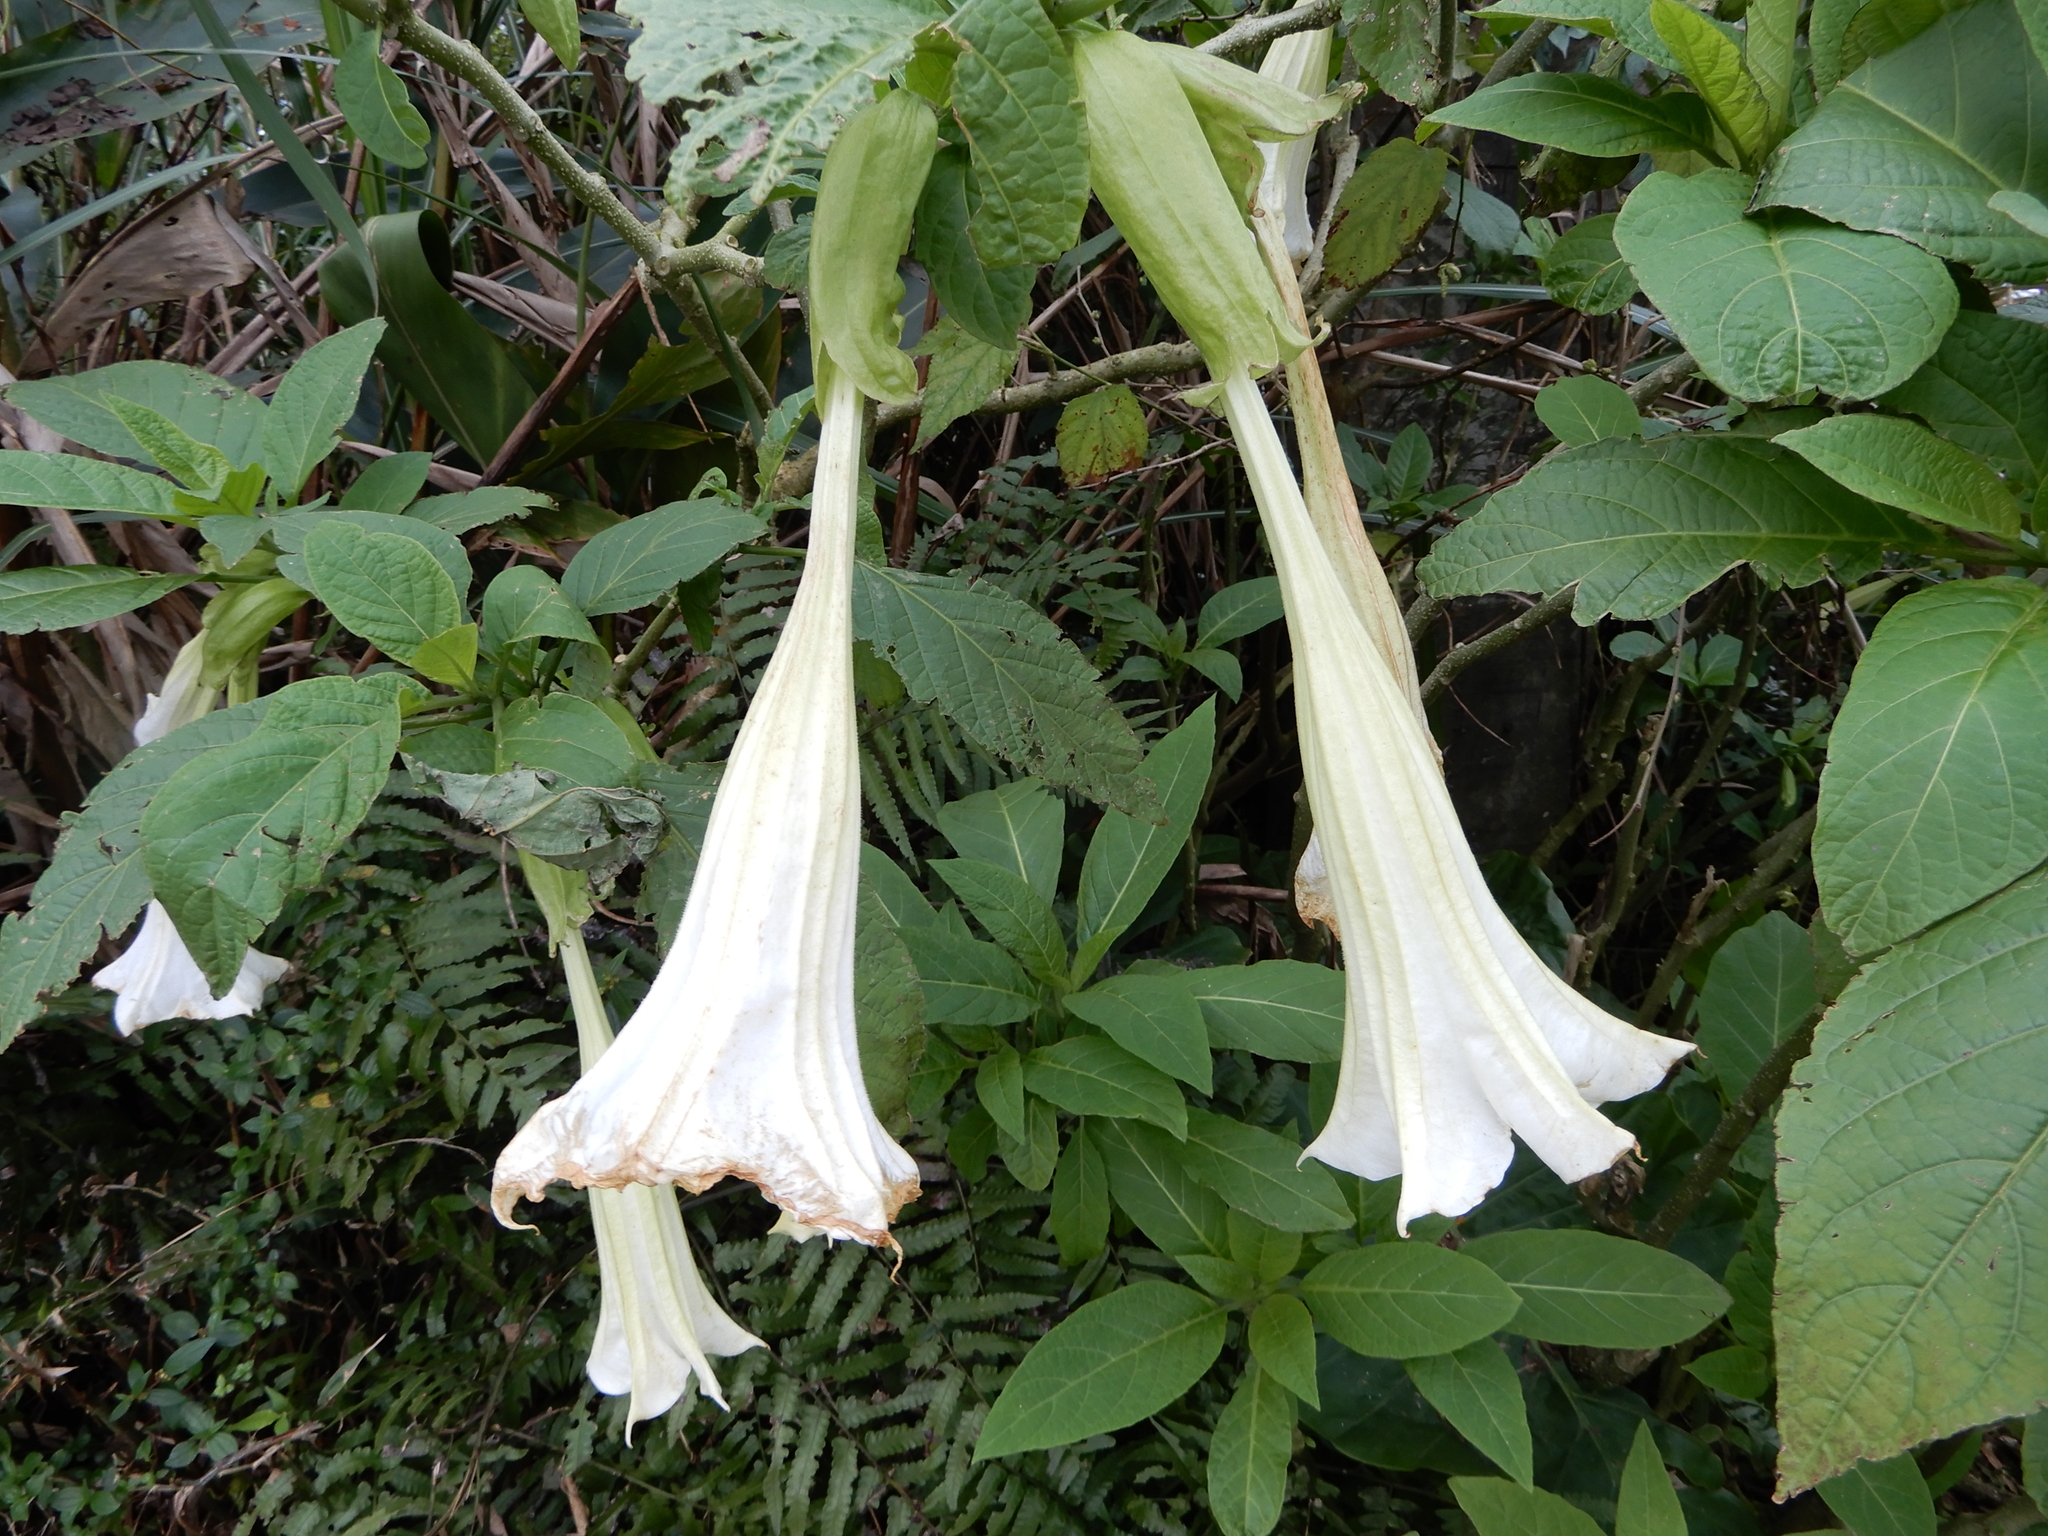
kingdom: Plantae
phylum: Tracheophyta
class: Magnoliopsida
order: Solanales
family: Solanaceae
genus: Brugmansia
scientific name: Brugmansia suaveolens
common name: Angel's tears
